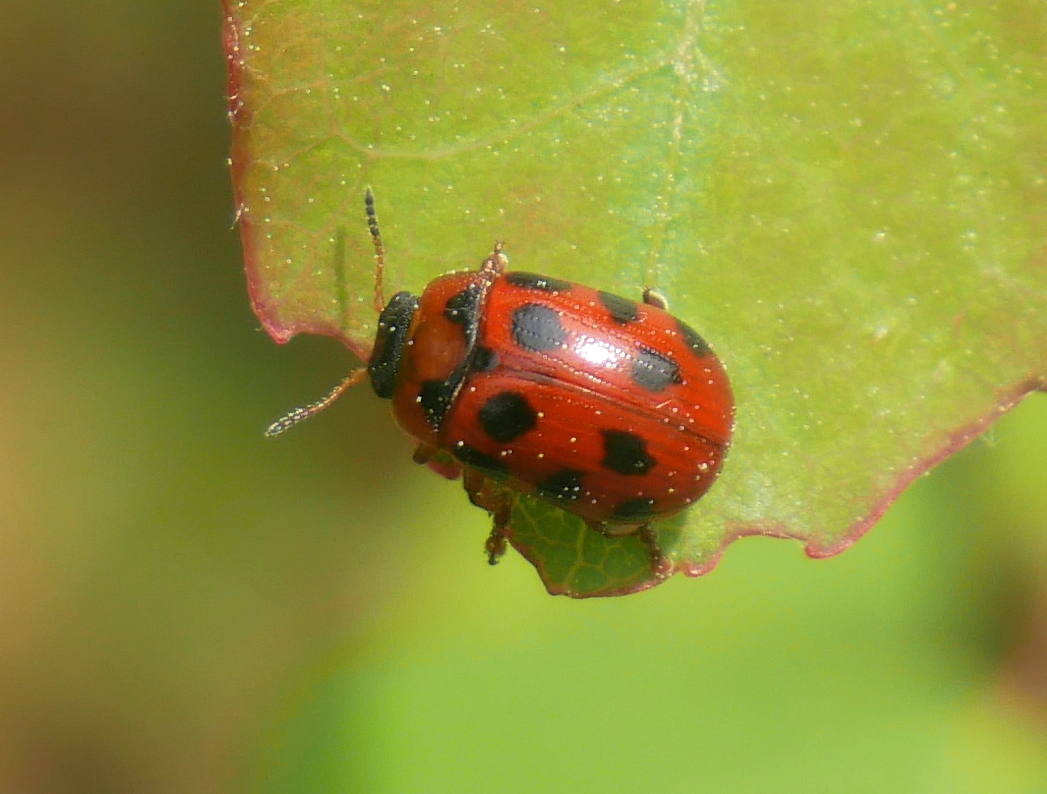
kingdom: Animalia
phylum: Arthropoda
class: Insecta
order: Coleoptera
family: Chrysomelidae
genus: Gonioctena
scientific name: Gonioctena decemnotata
